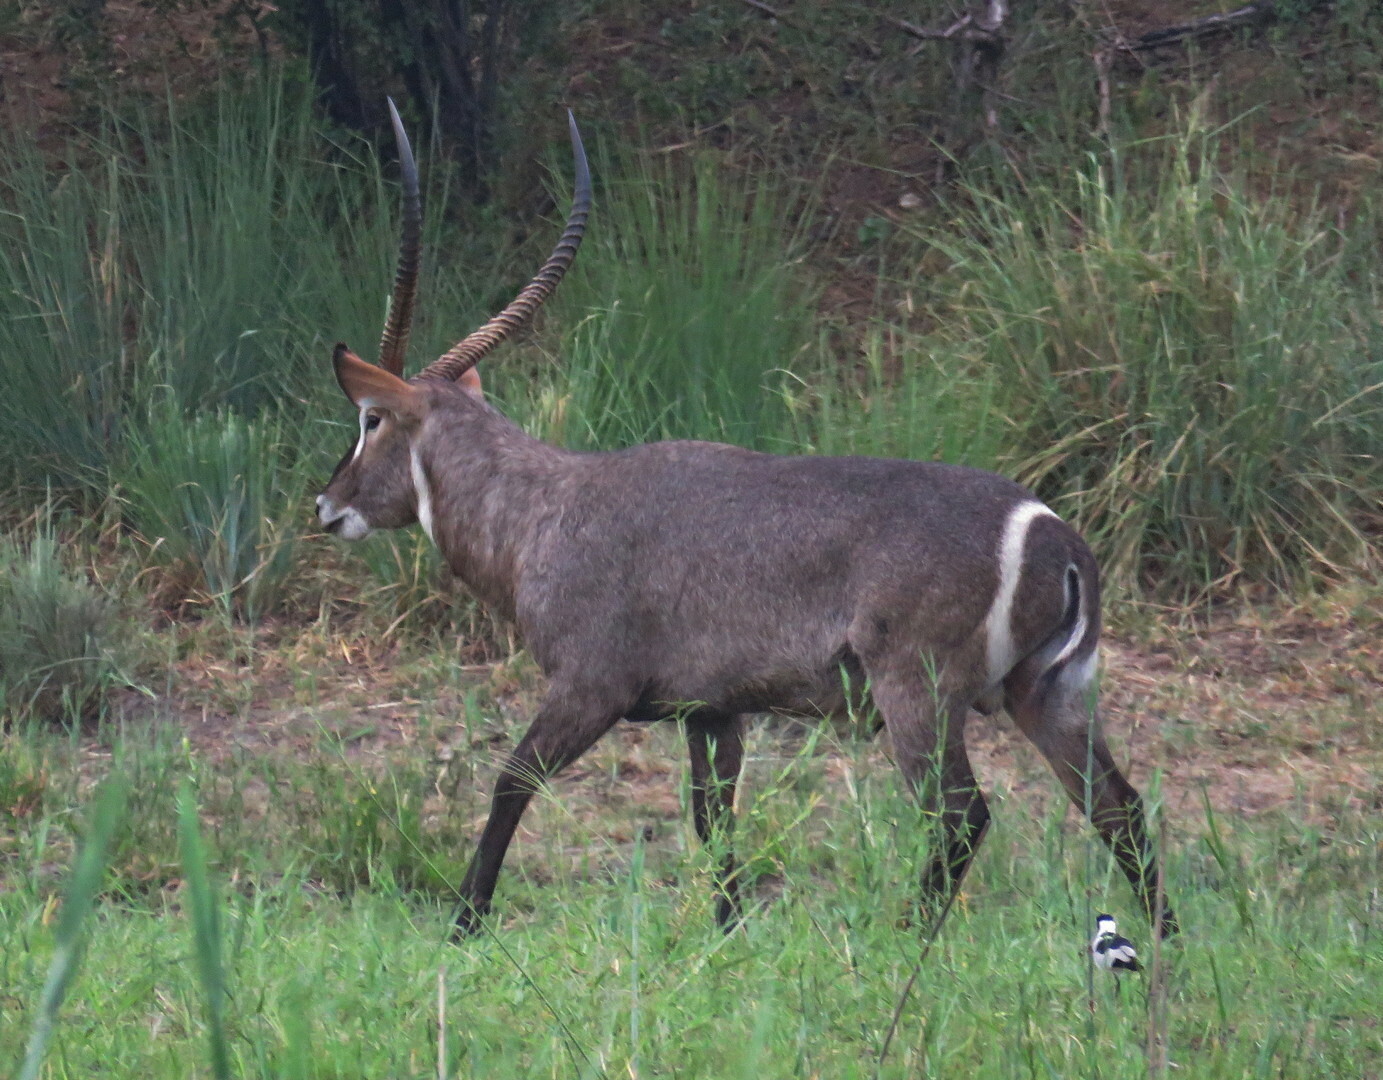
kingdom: Animalia
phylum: Chordata
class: Mammalia
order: Artiodactyla
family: Bovidae
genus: Kobus
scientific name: Kobus ellipsiprymnus
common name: Waterbuck
